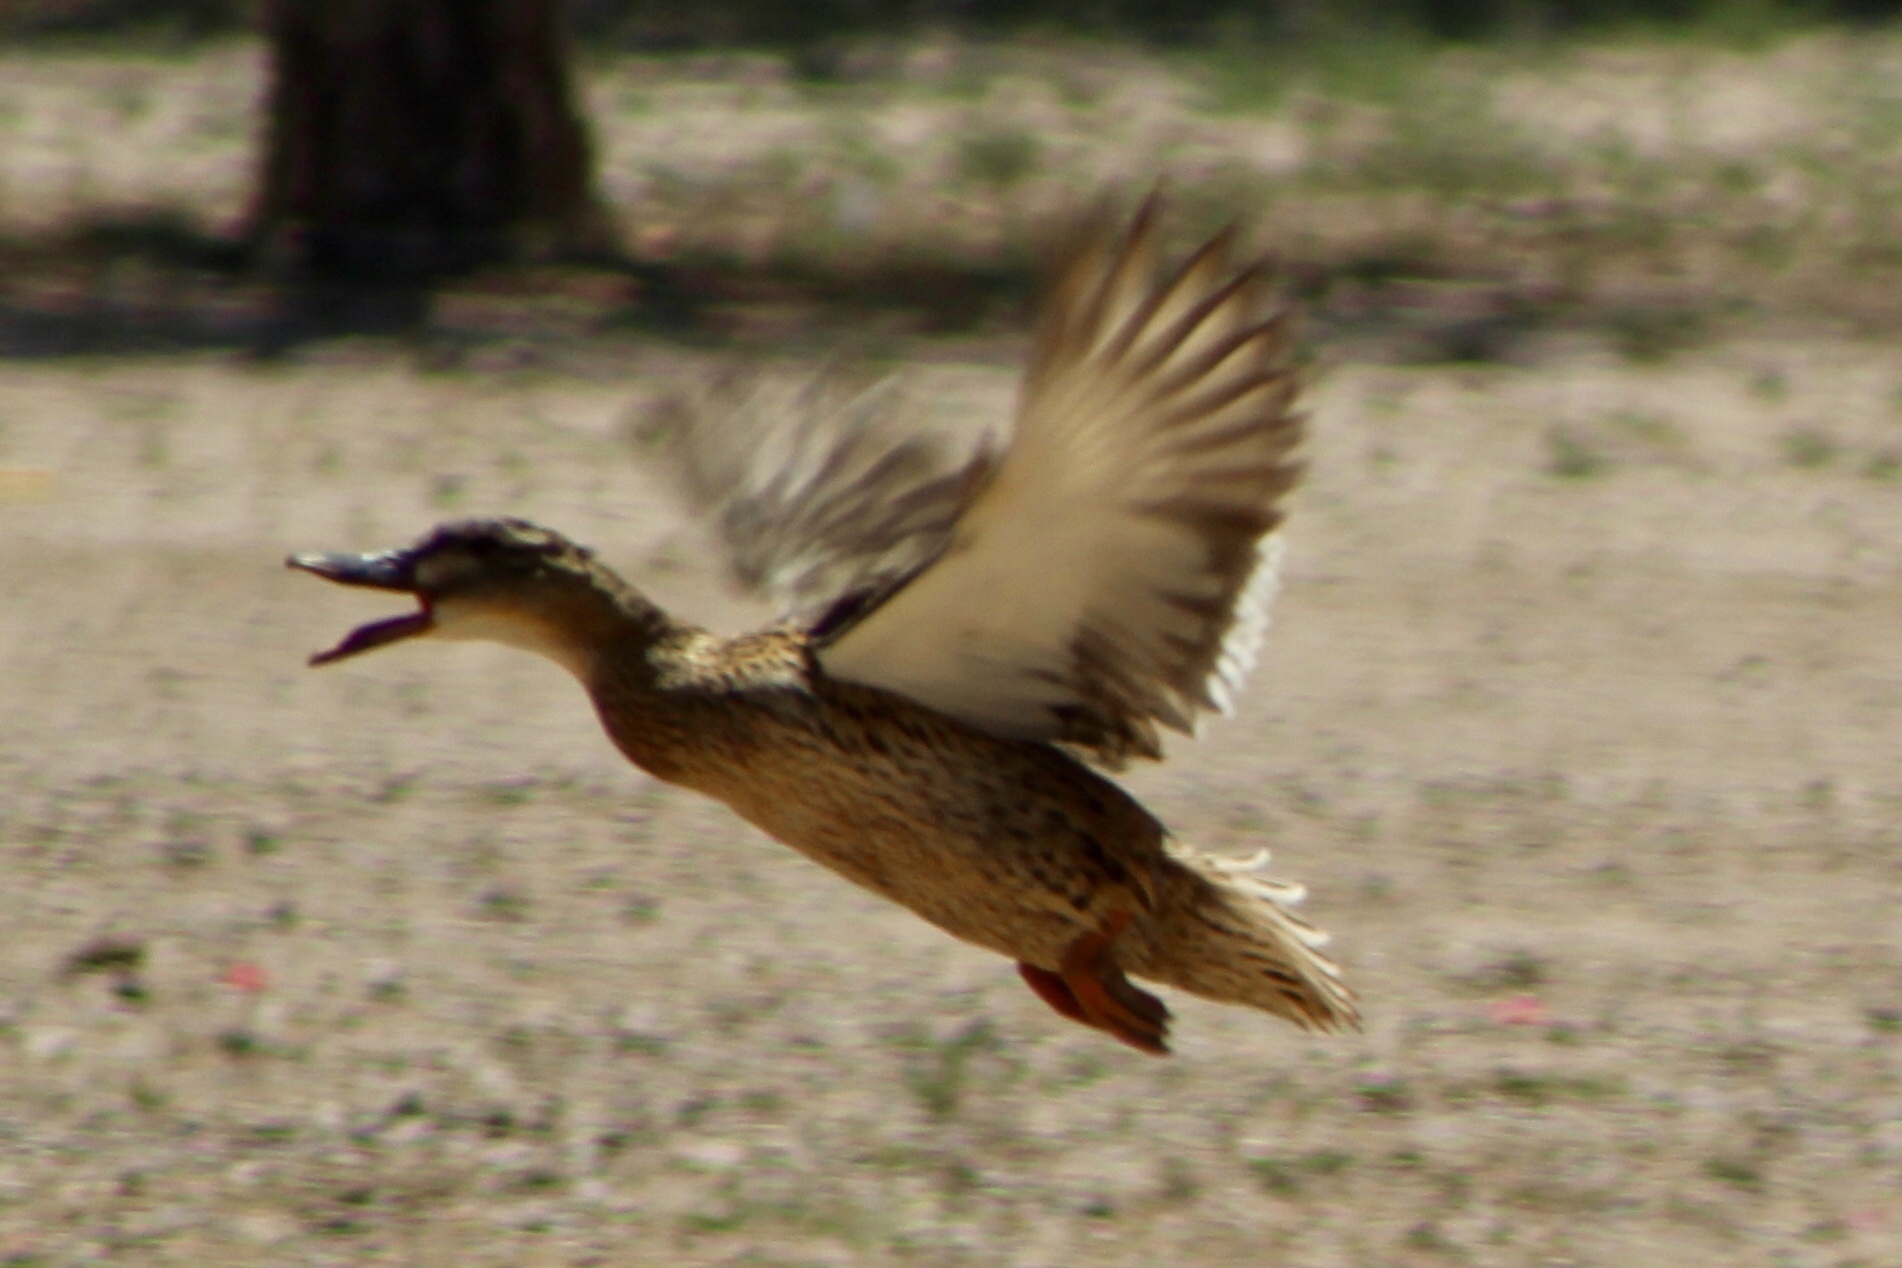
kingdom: Animalia
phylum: Chordata
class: Aves
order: Anseriformes
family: Anatidae
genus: Anas
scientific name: Anas platyrhynchos
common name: Mallard
